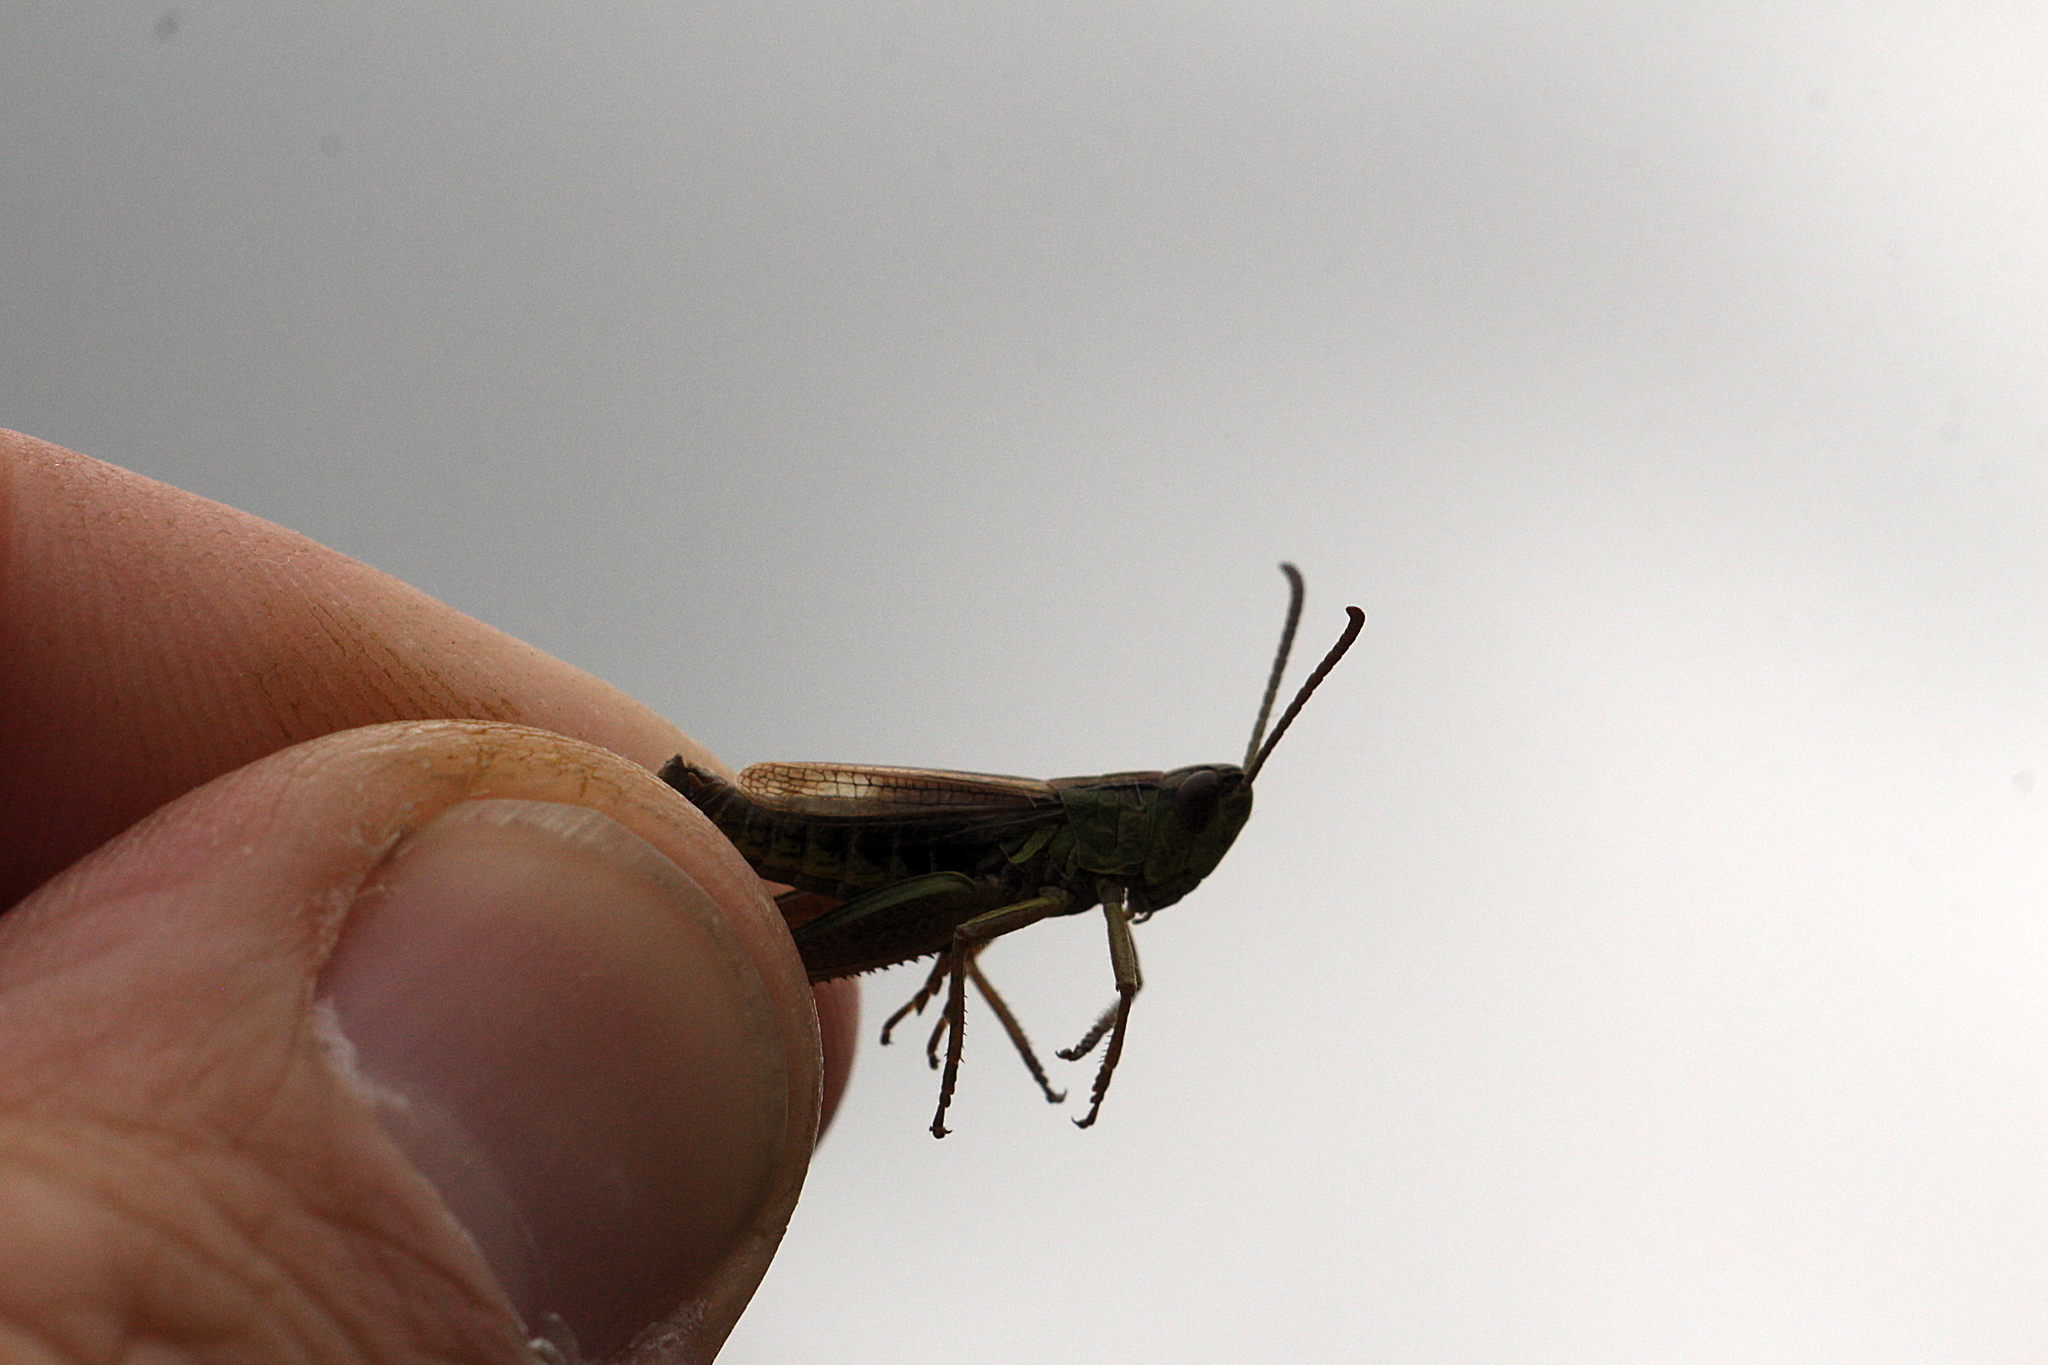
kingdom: Animalia
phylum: Arthropoda
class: Insecta
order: Orthoptera
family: Acrididae
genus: Pseudochorthippus
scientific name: Pseudochorthippus parallelus
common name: Meadow grasshopper
